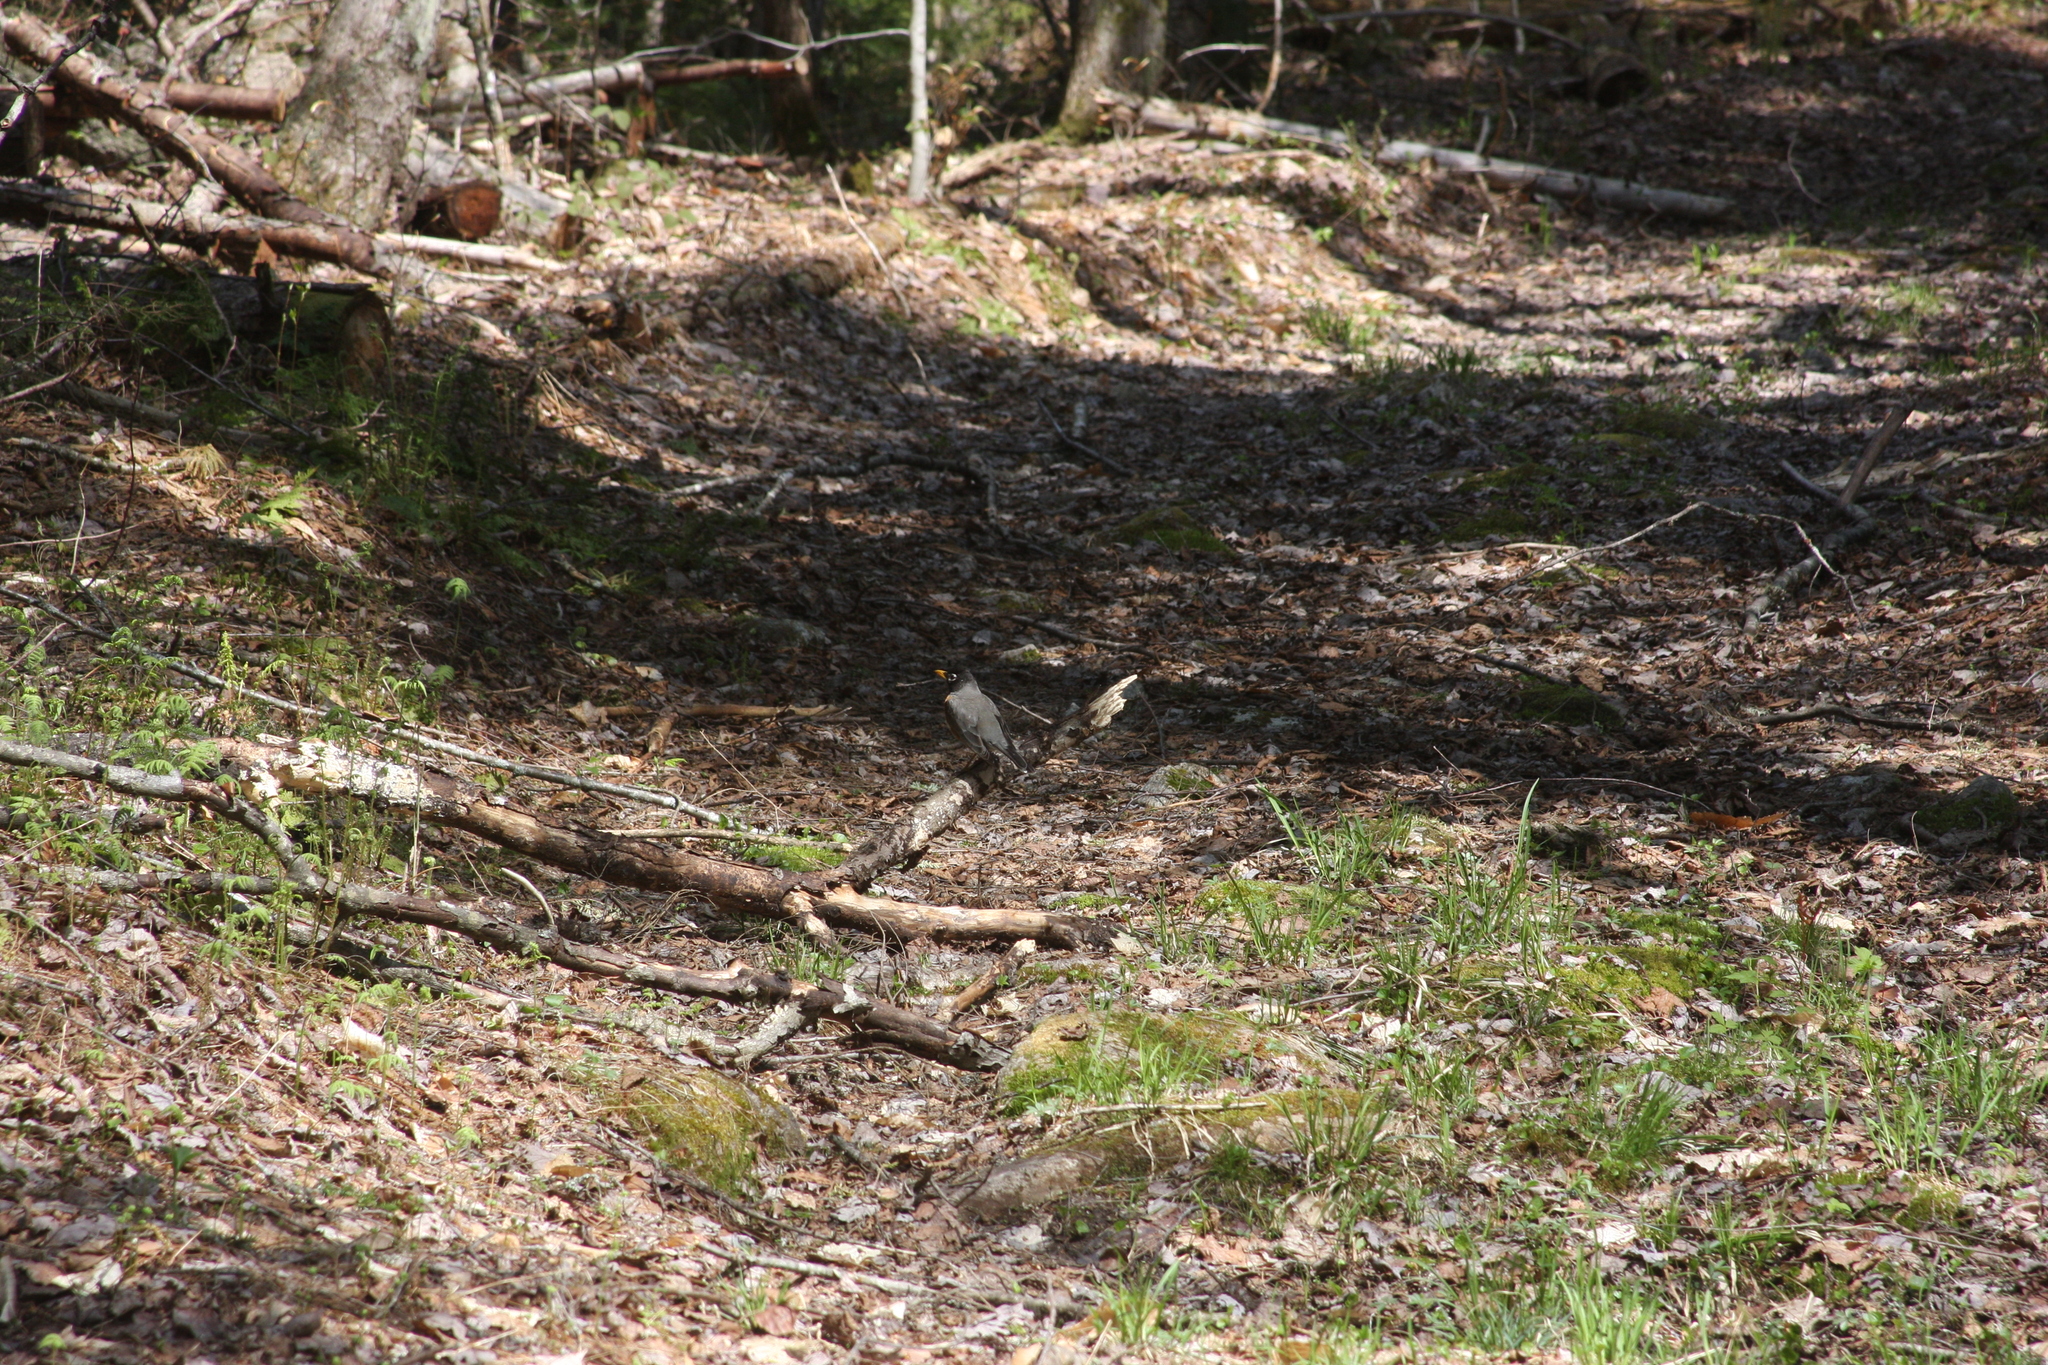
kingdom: Animalia
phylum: Chordata
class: Aves
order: Passeriformes
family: Turdidae
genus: Turdus
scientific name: Turdus migratorius
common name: American robin
